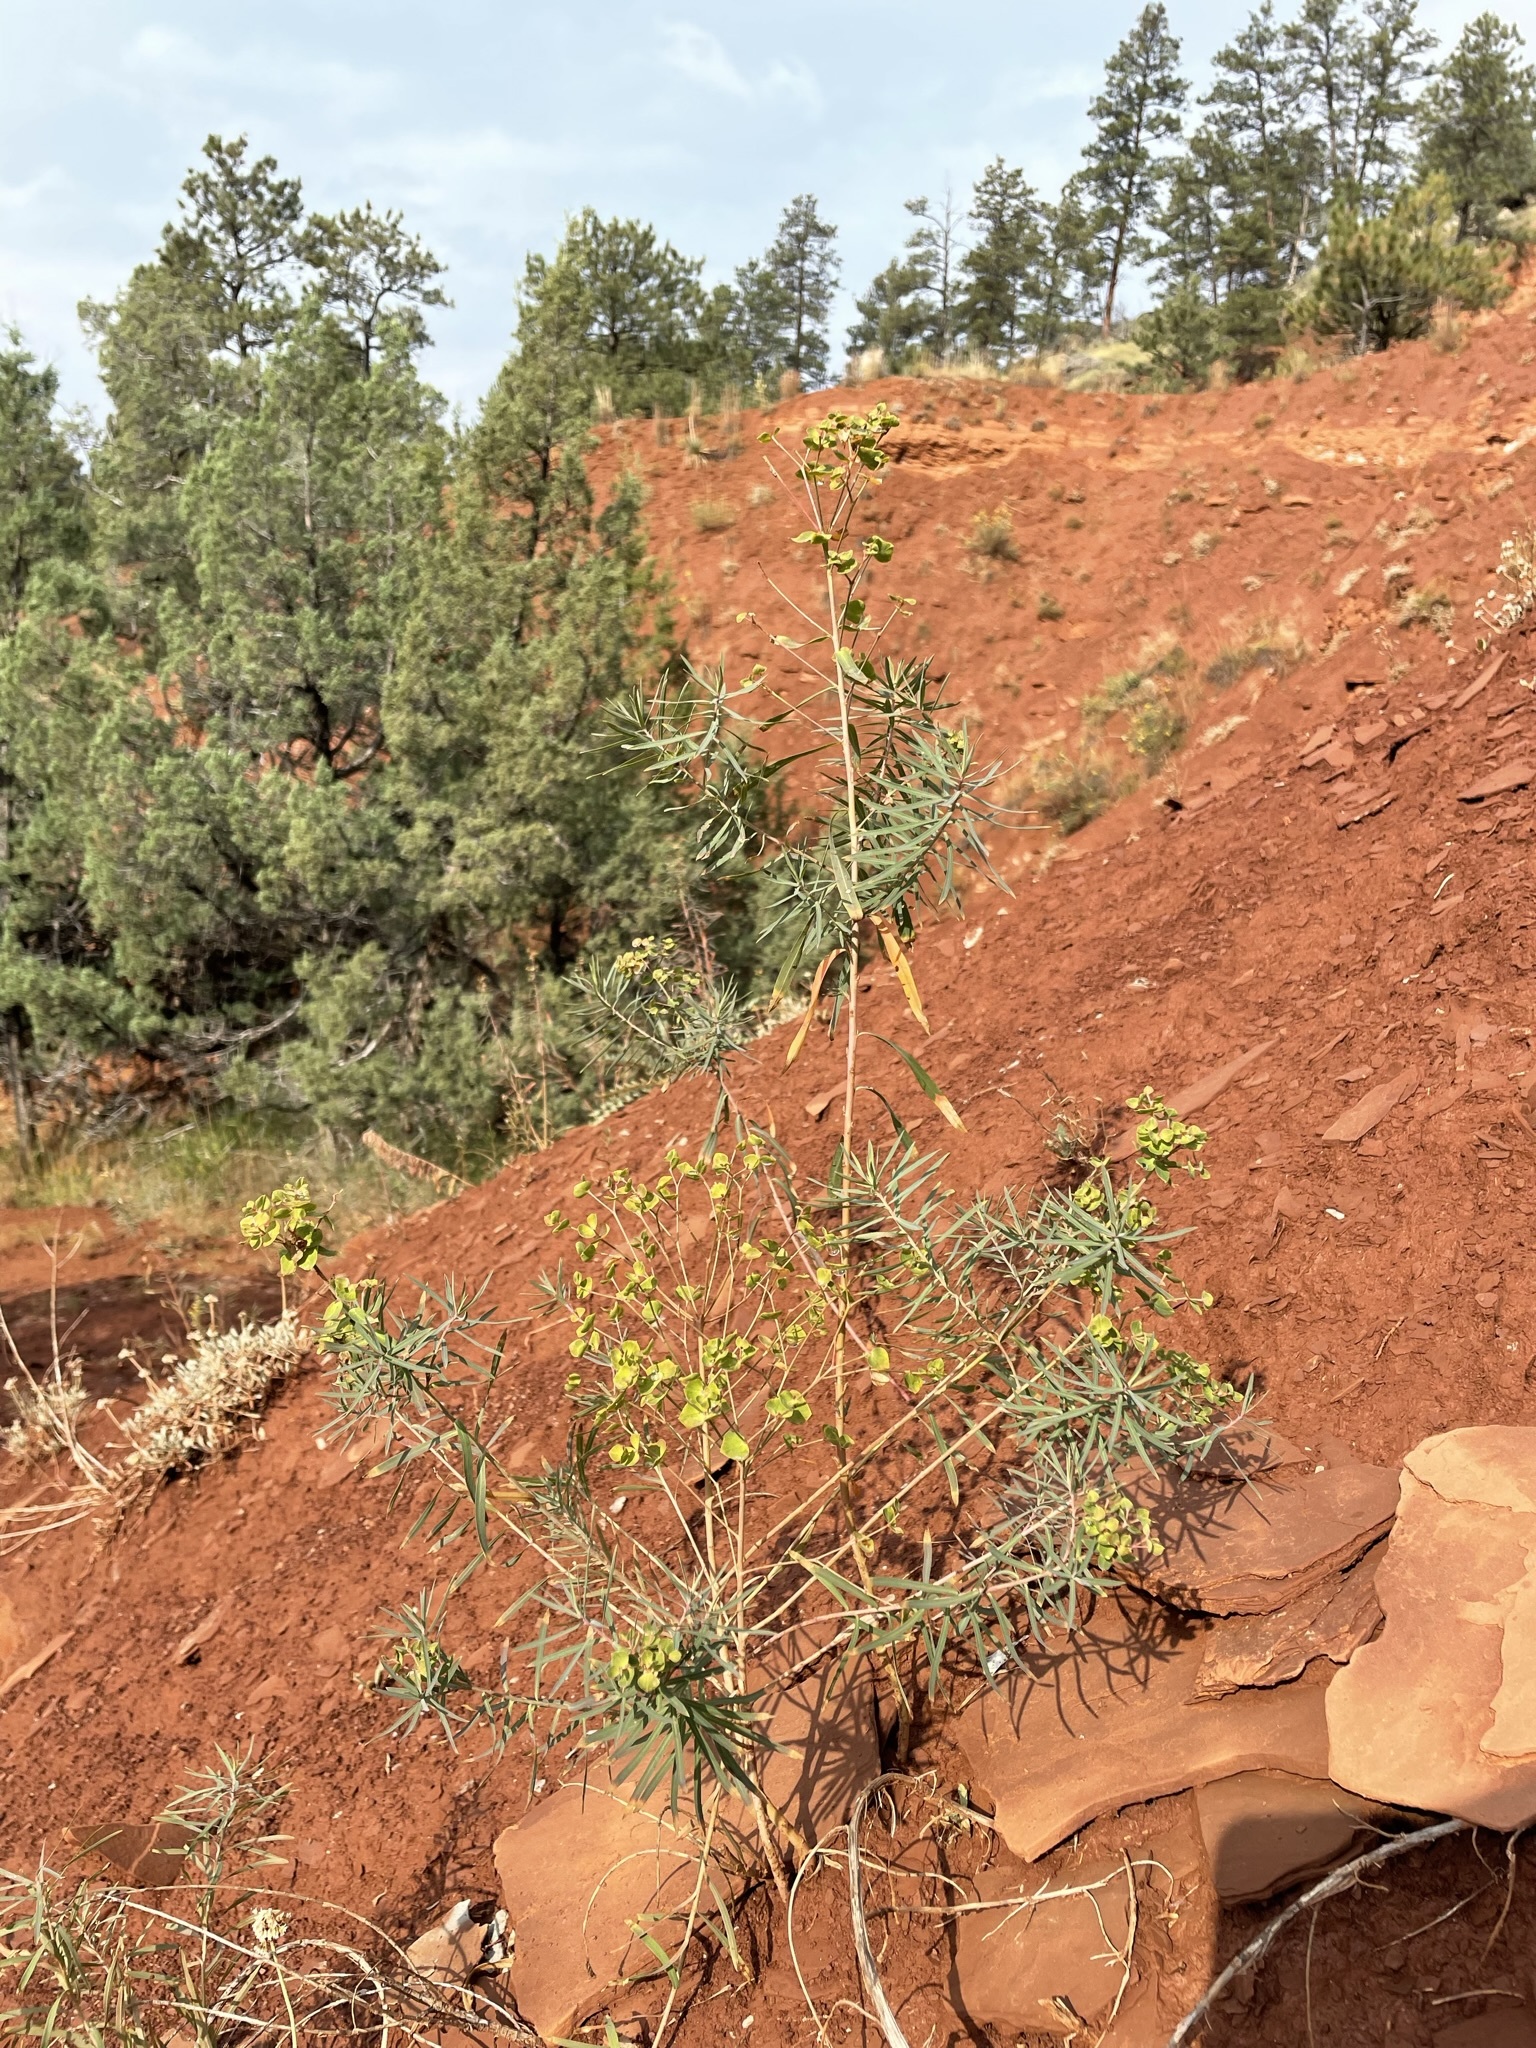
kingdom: Plantae
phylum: Tracheophyta
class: Magnoliopsida
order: Malpighiales
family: Euphorbiaceae
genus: Euphorbia
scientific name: Euphorbia virgata
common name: Leafy spurge
